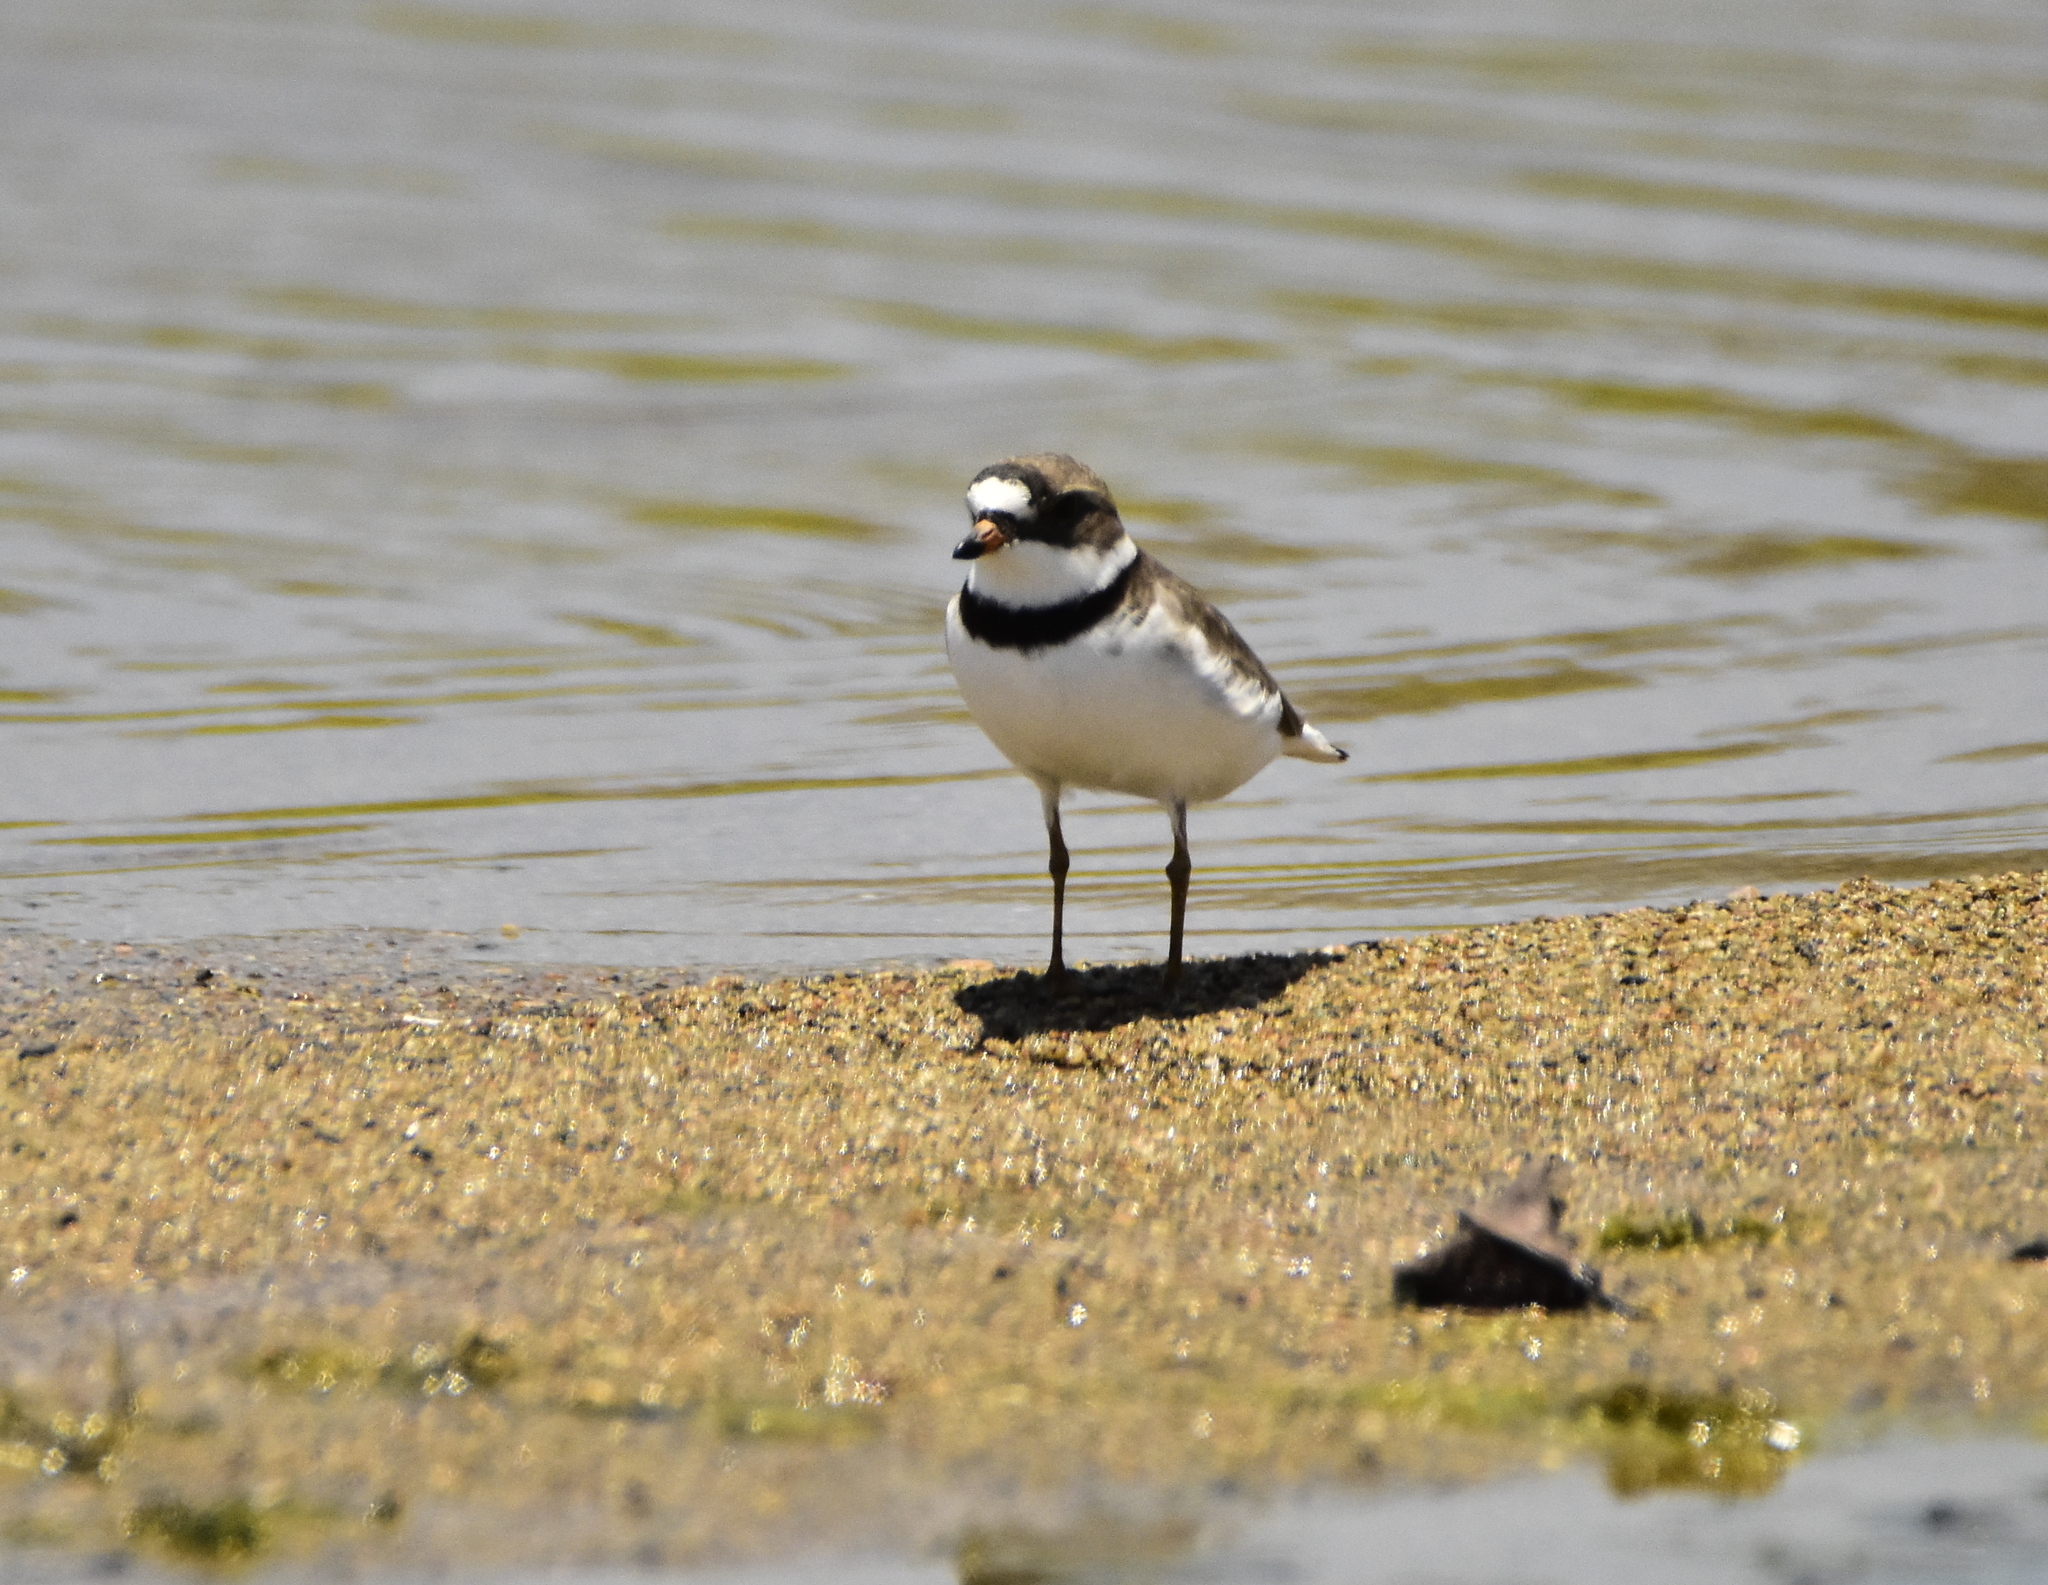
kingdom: Animalia
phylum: Chordata
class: Aves
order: Charadriiformes
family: Charadriidae
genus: Charadrius
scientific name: Charadrius semipalmatus
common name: Semipalmated plover
